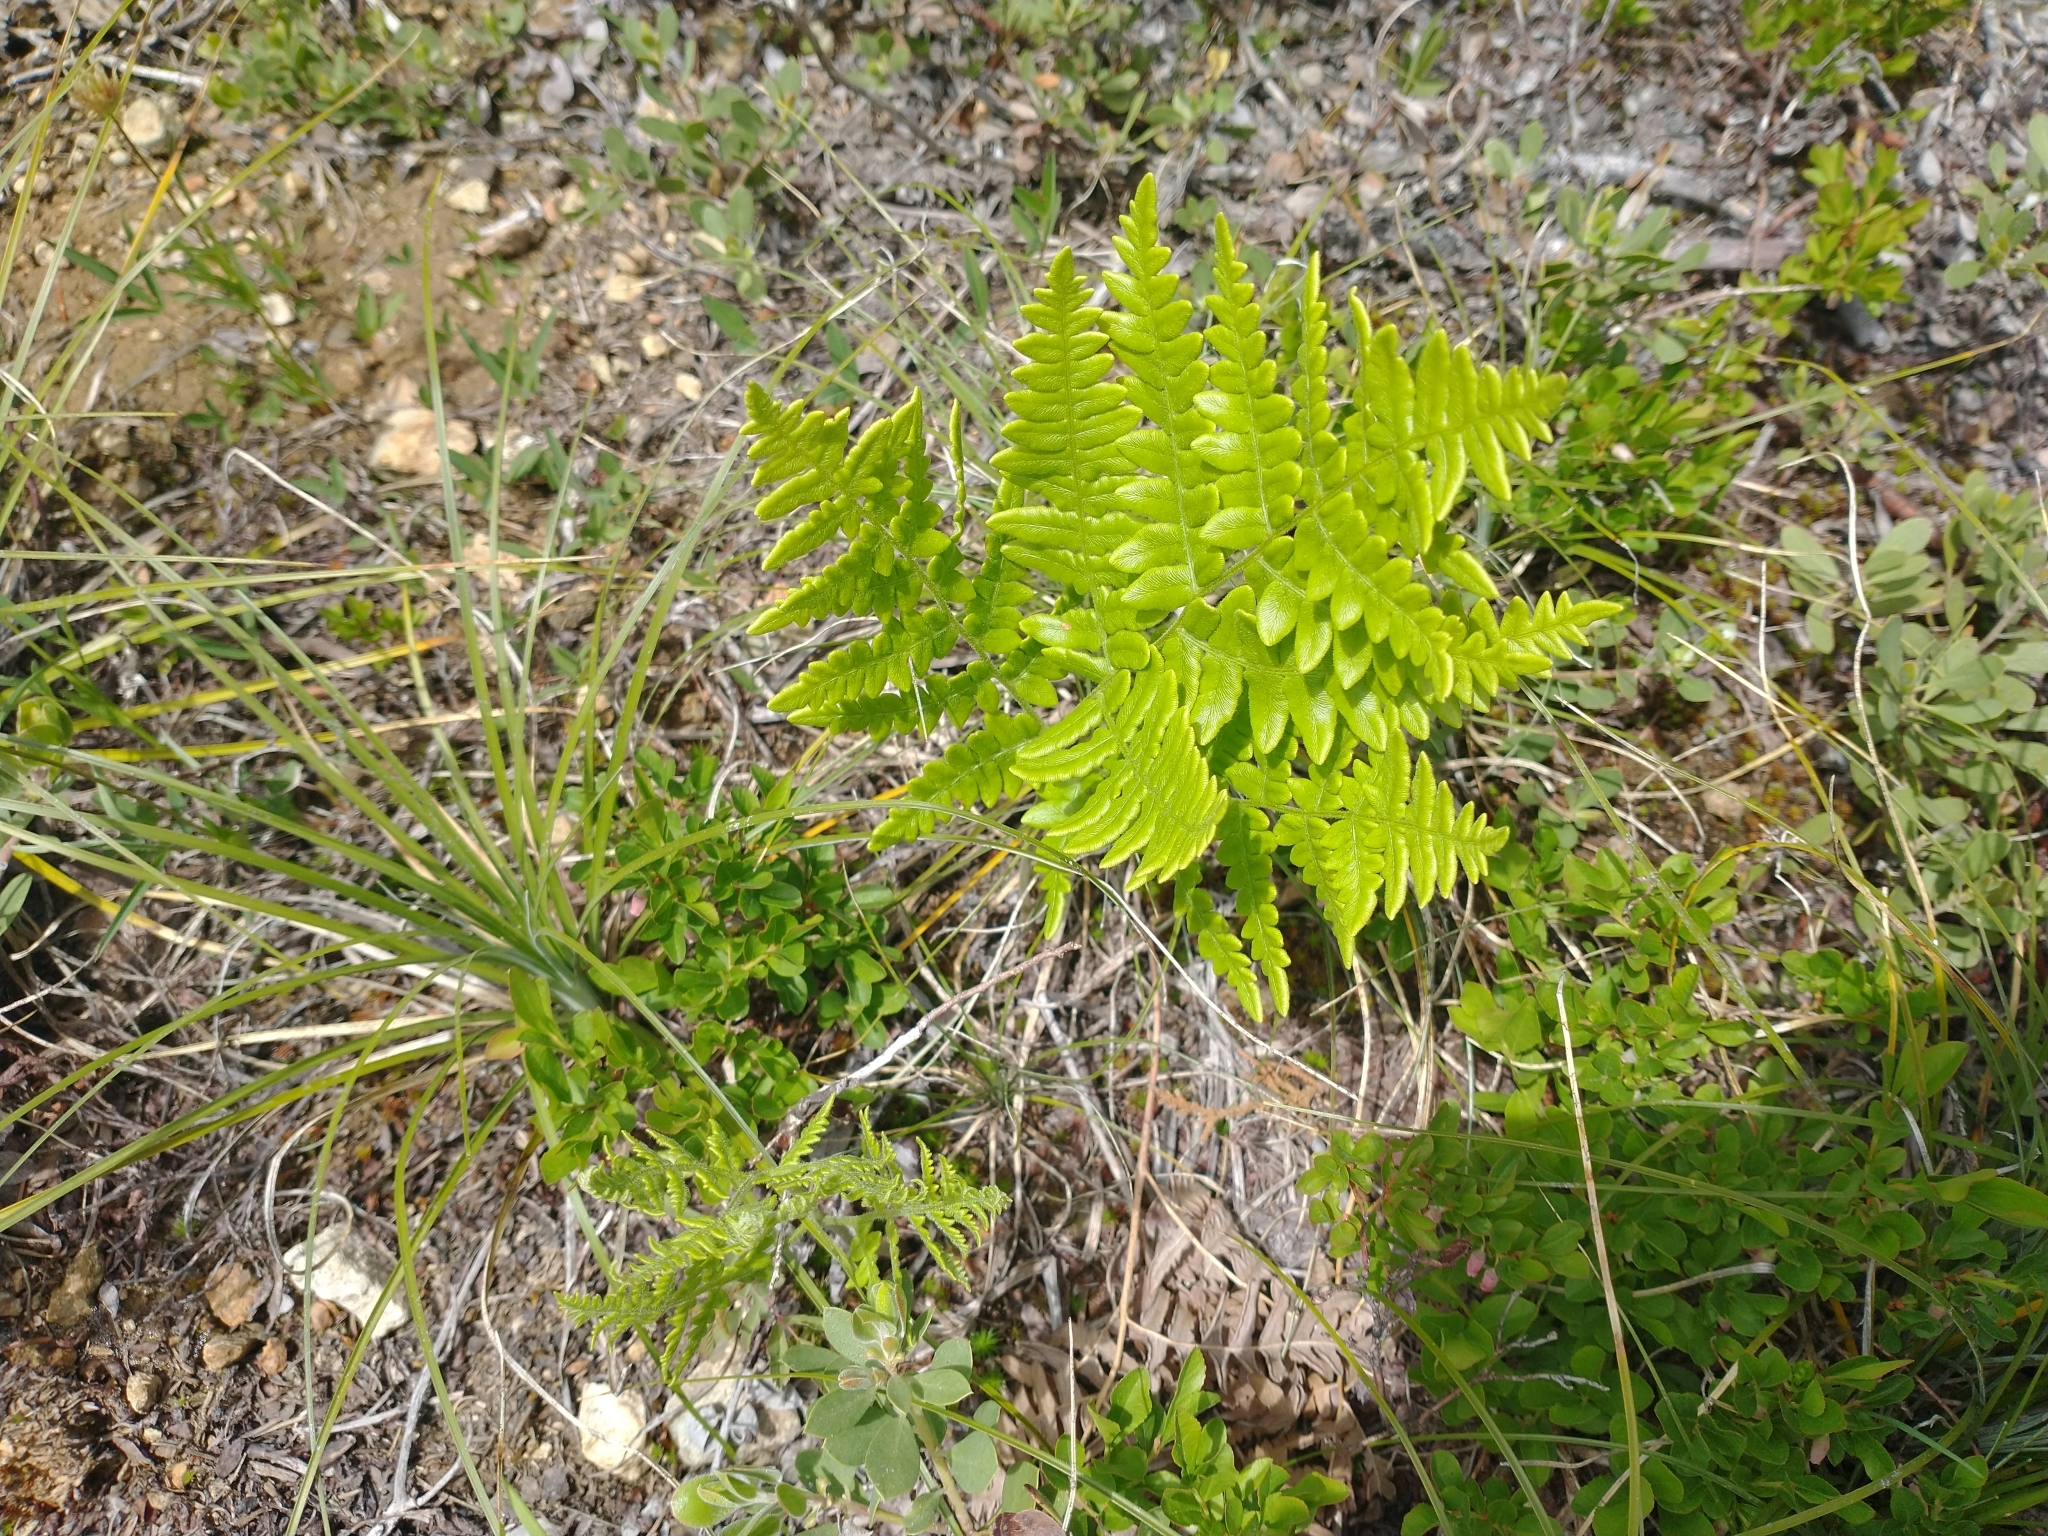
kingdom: Plantae
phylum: Tracheophyta
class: Polypodiopsida
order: Polypodiales
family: Dennstaedtiaceae
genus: Pteridium
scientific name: Pteridium aquilinum
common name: Bracken
